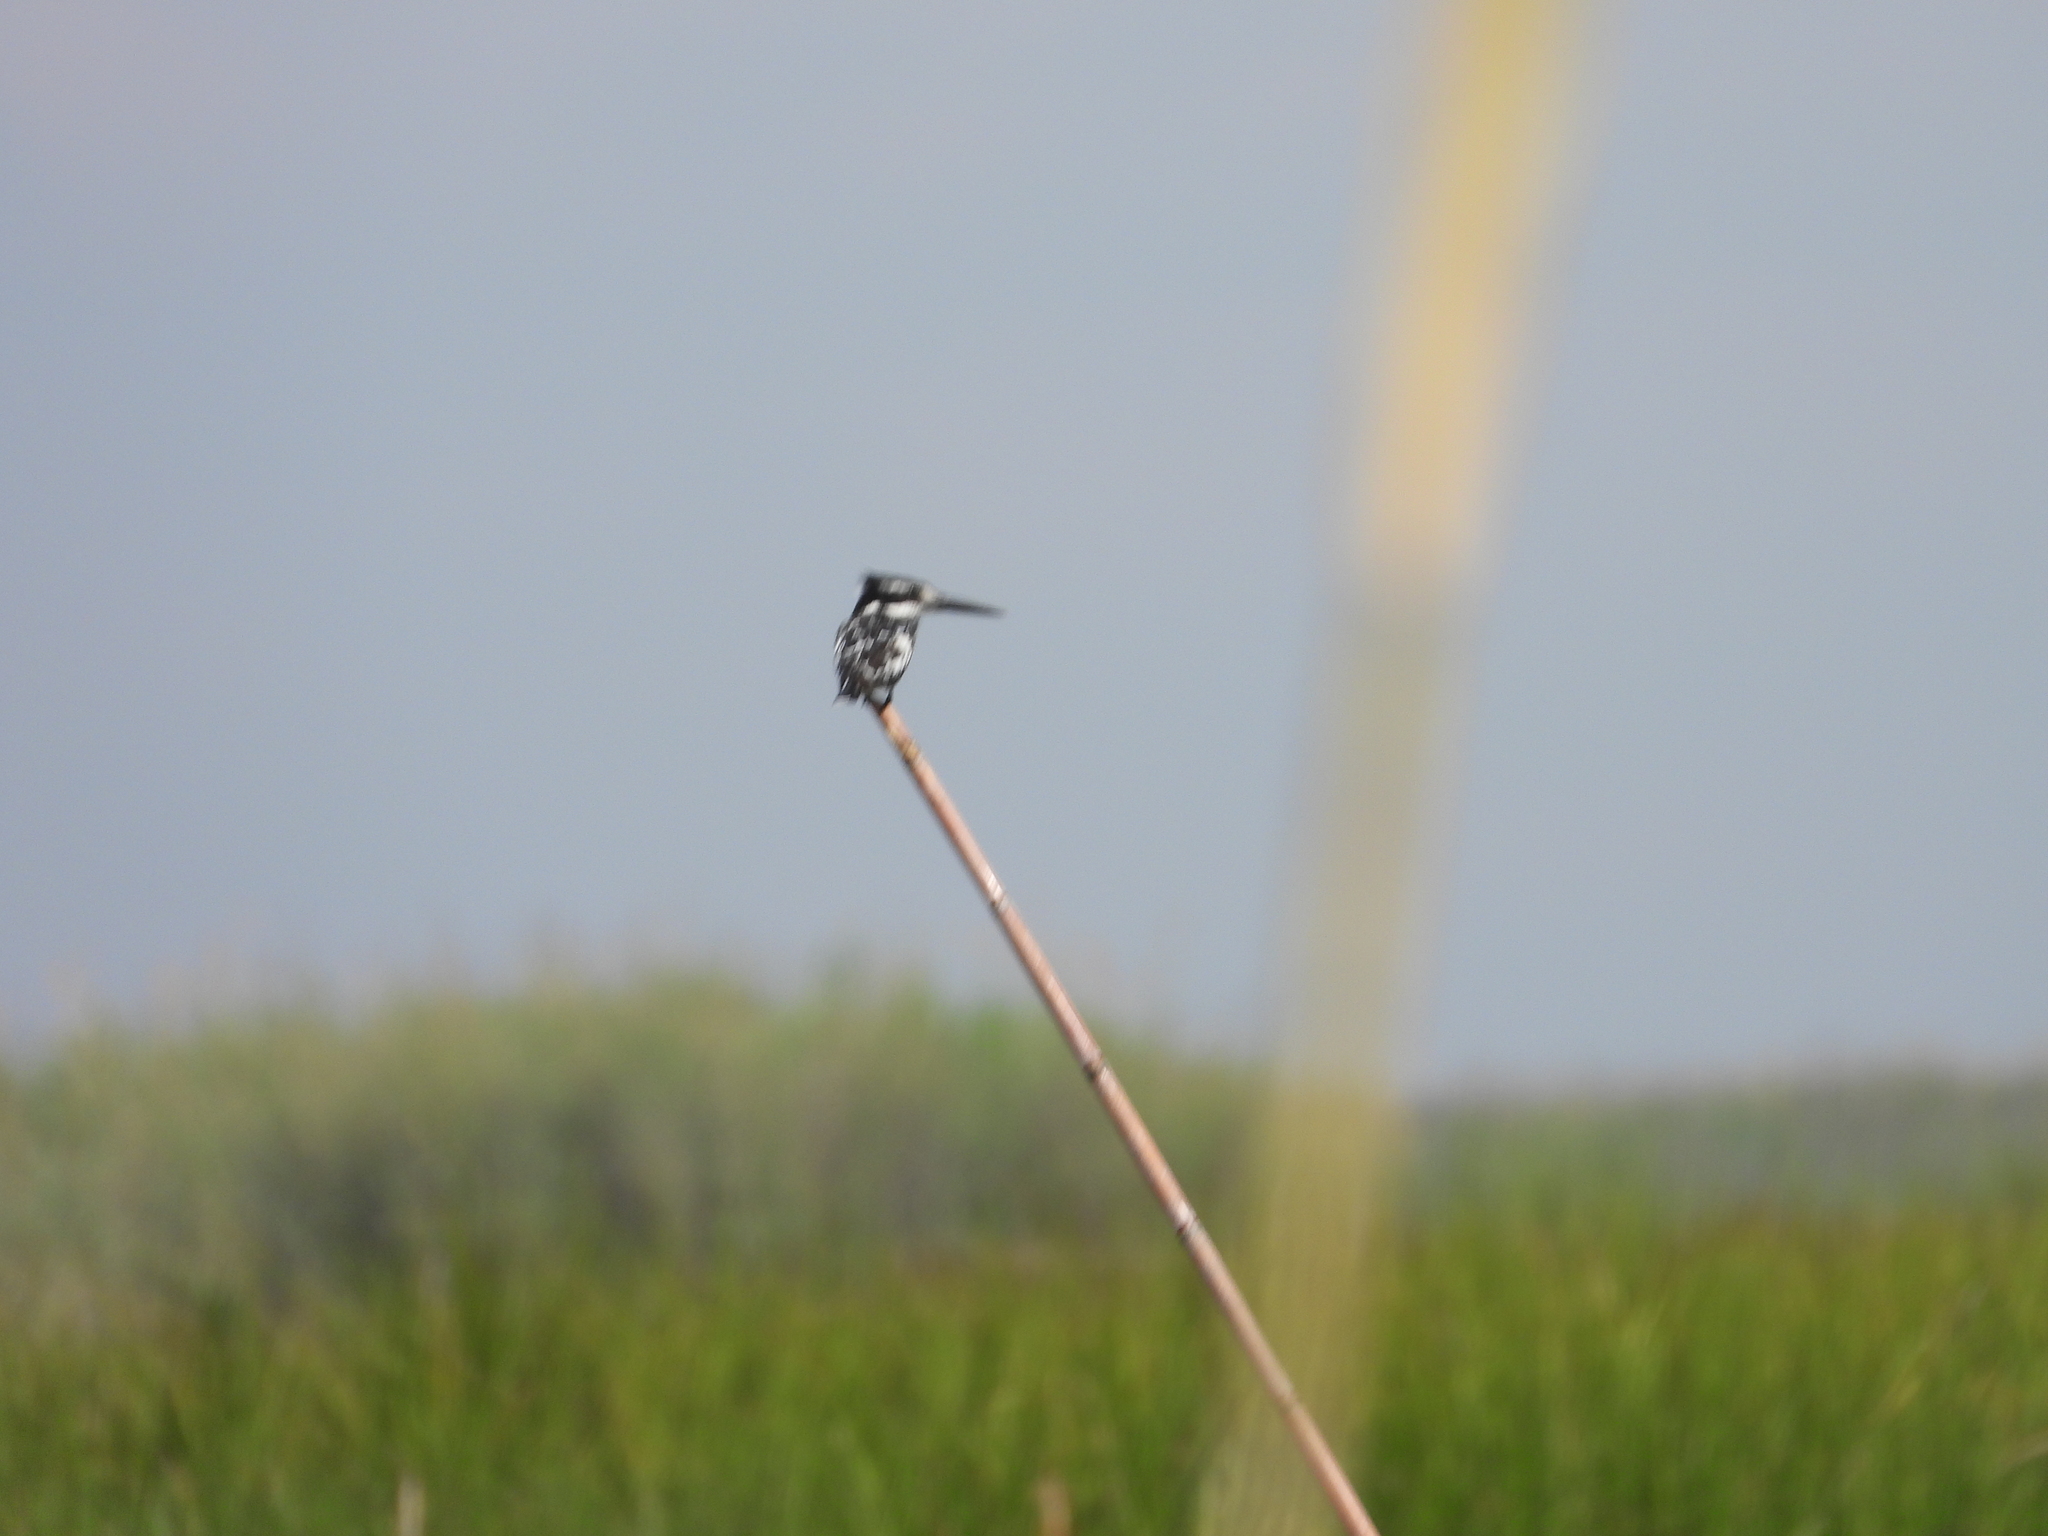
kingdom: Animalia
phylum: Chordata
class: Aves
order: Coraciiformes
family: Alcedinidae
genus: Ceryle
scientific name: Ceryle rudis
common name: Pied kingfisher
